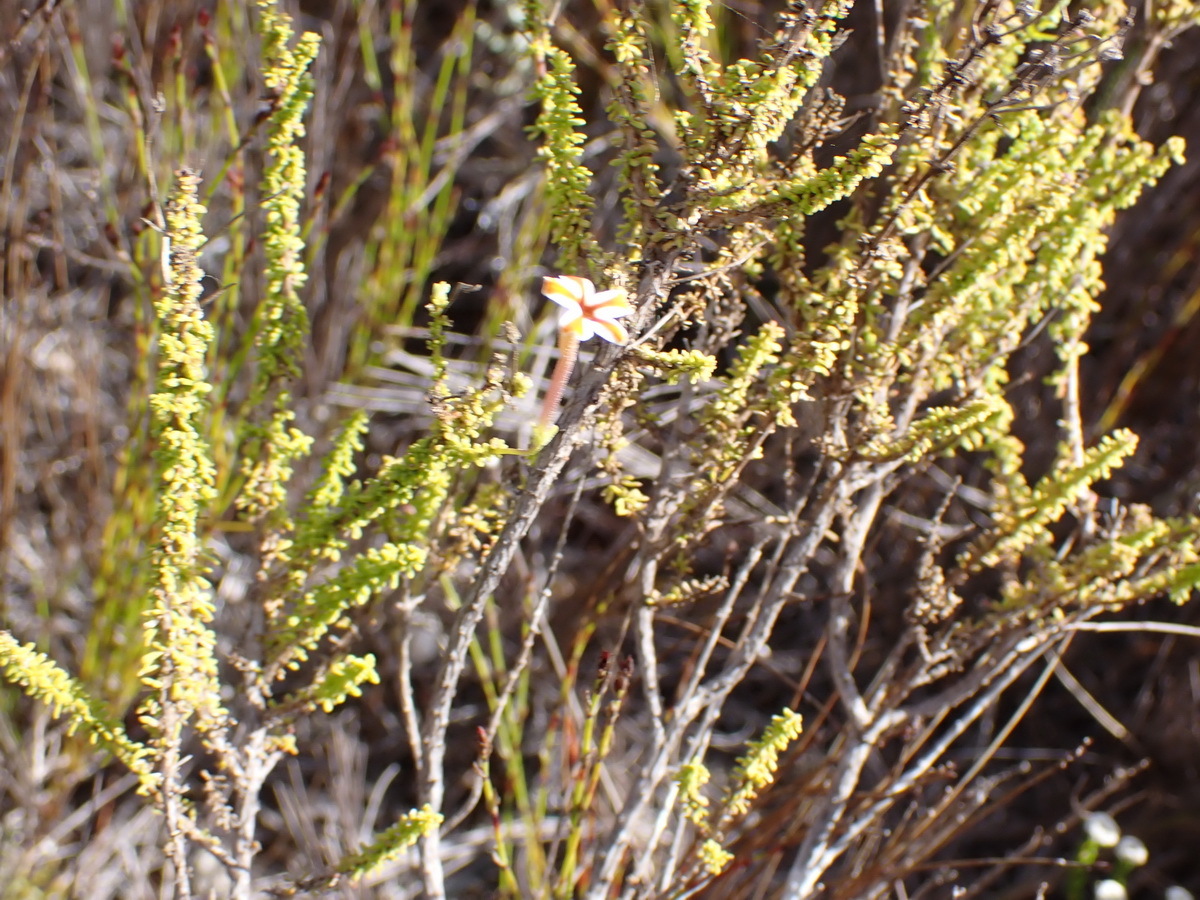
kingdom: Plantae
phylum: Tracheophyta
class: Magnoliopsida
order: Lamiales
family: Scrophulariaceae
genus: Jamesbrittenia
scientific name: Jamesbrittenia albomarginata
